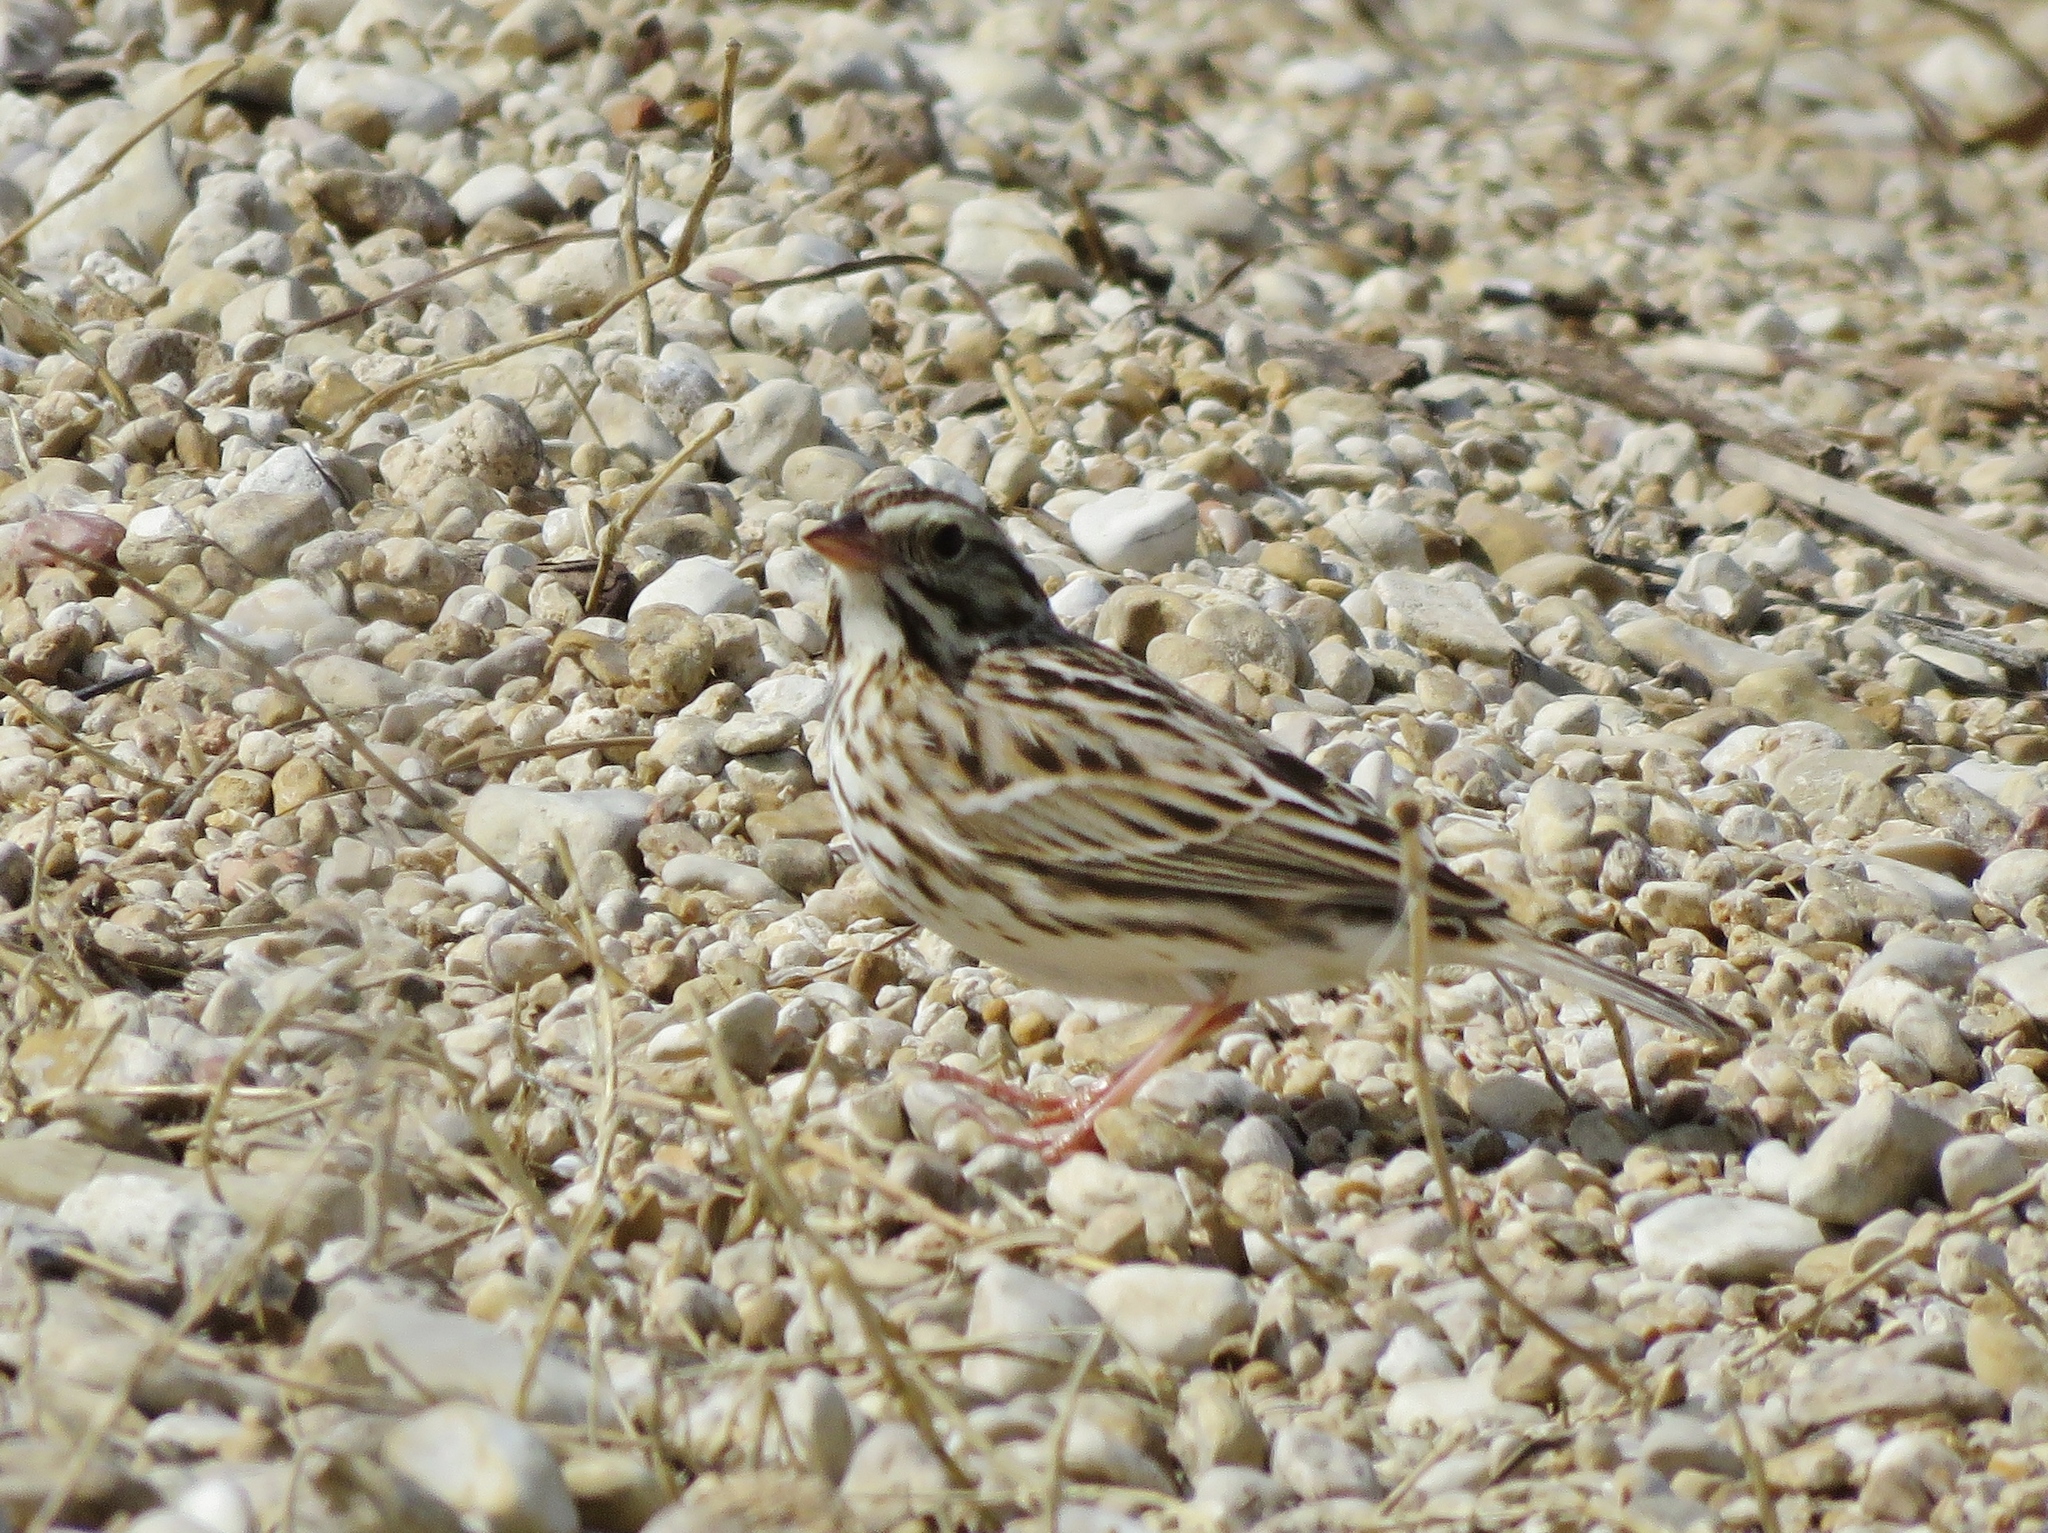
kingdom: Animalia
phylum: Chordata
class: Aves
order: Passeriformes
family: Passerellidae
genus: Passerculus
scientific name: Passerculus sandwichensis
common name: Savannah sparrow
